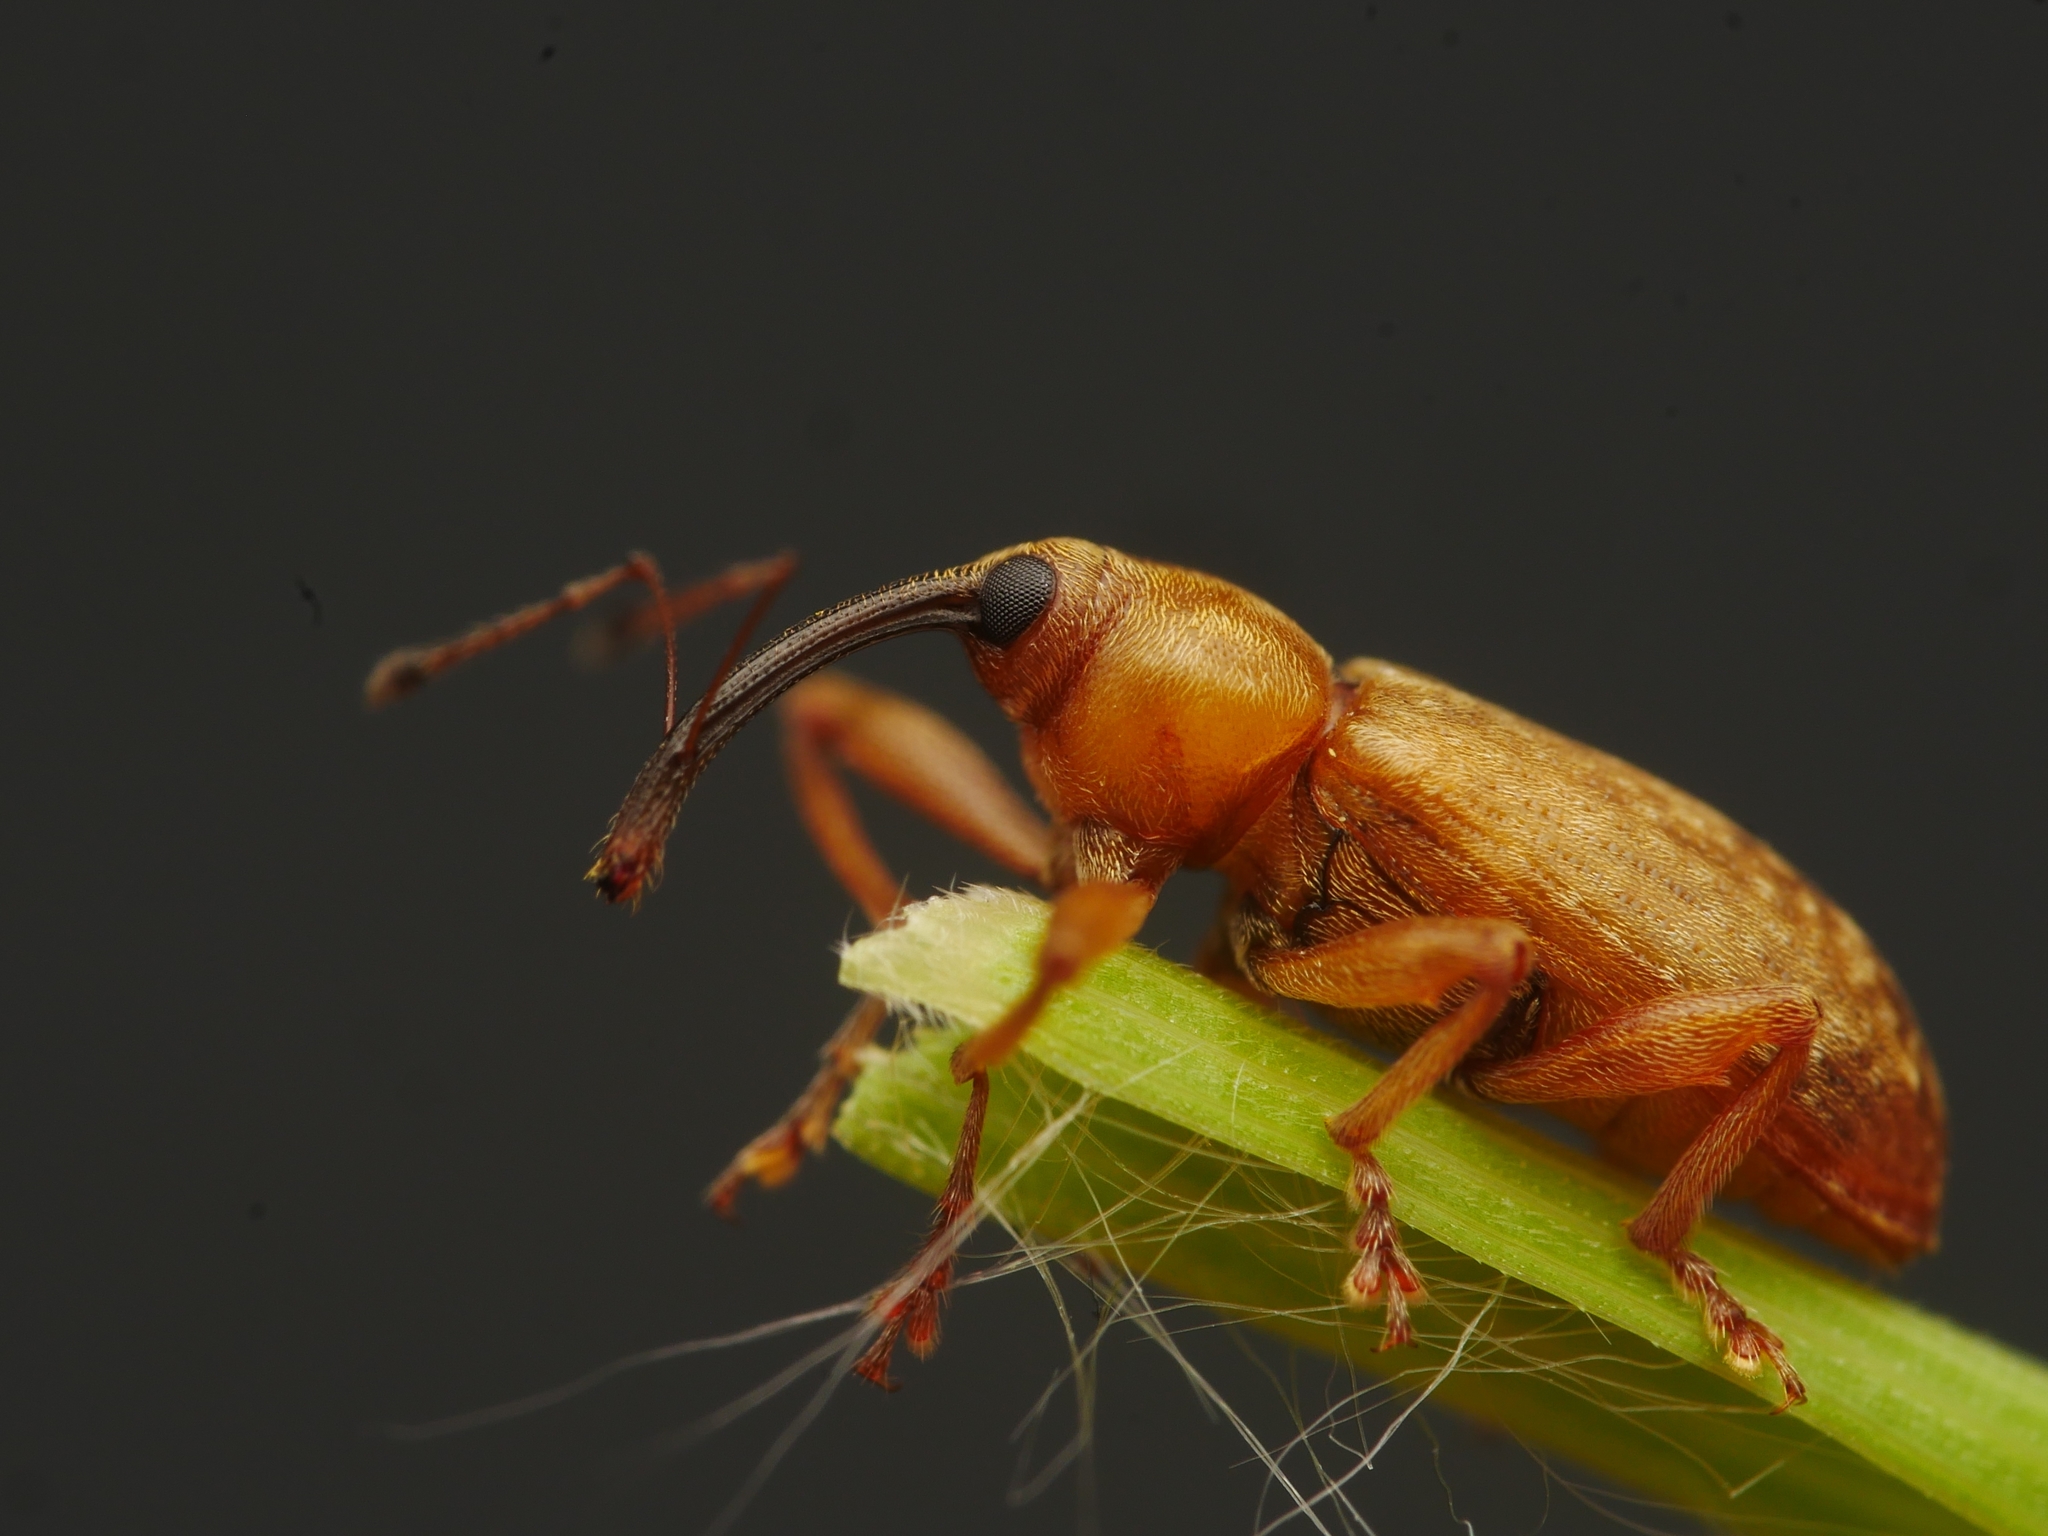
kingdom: Animalia
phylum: Arthropoda
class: Insecta
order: Coleoptera
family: Curculionidae
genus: Dorytomus
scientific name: Dorytomus longimanus
